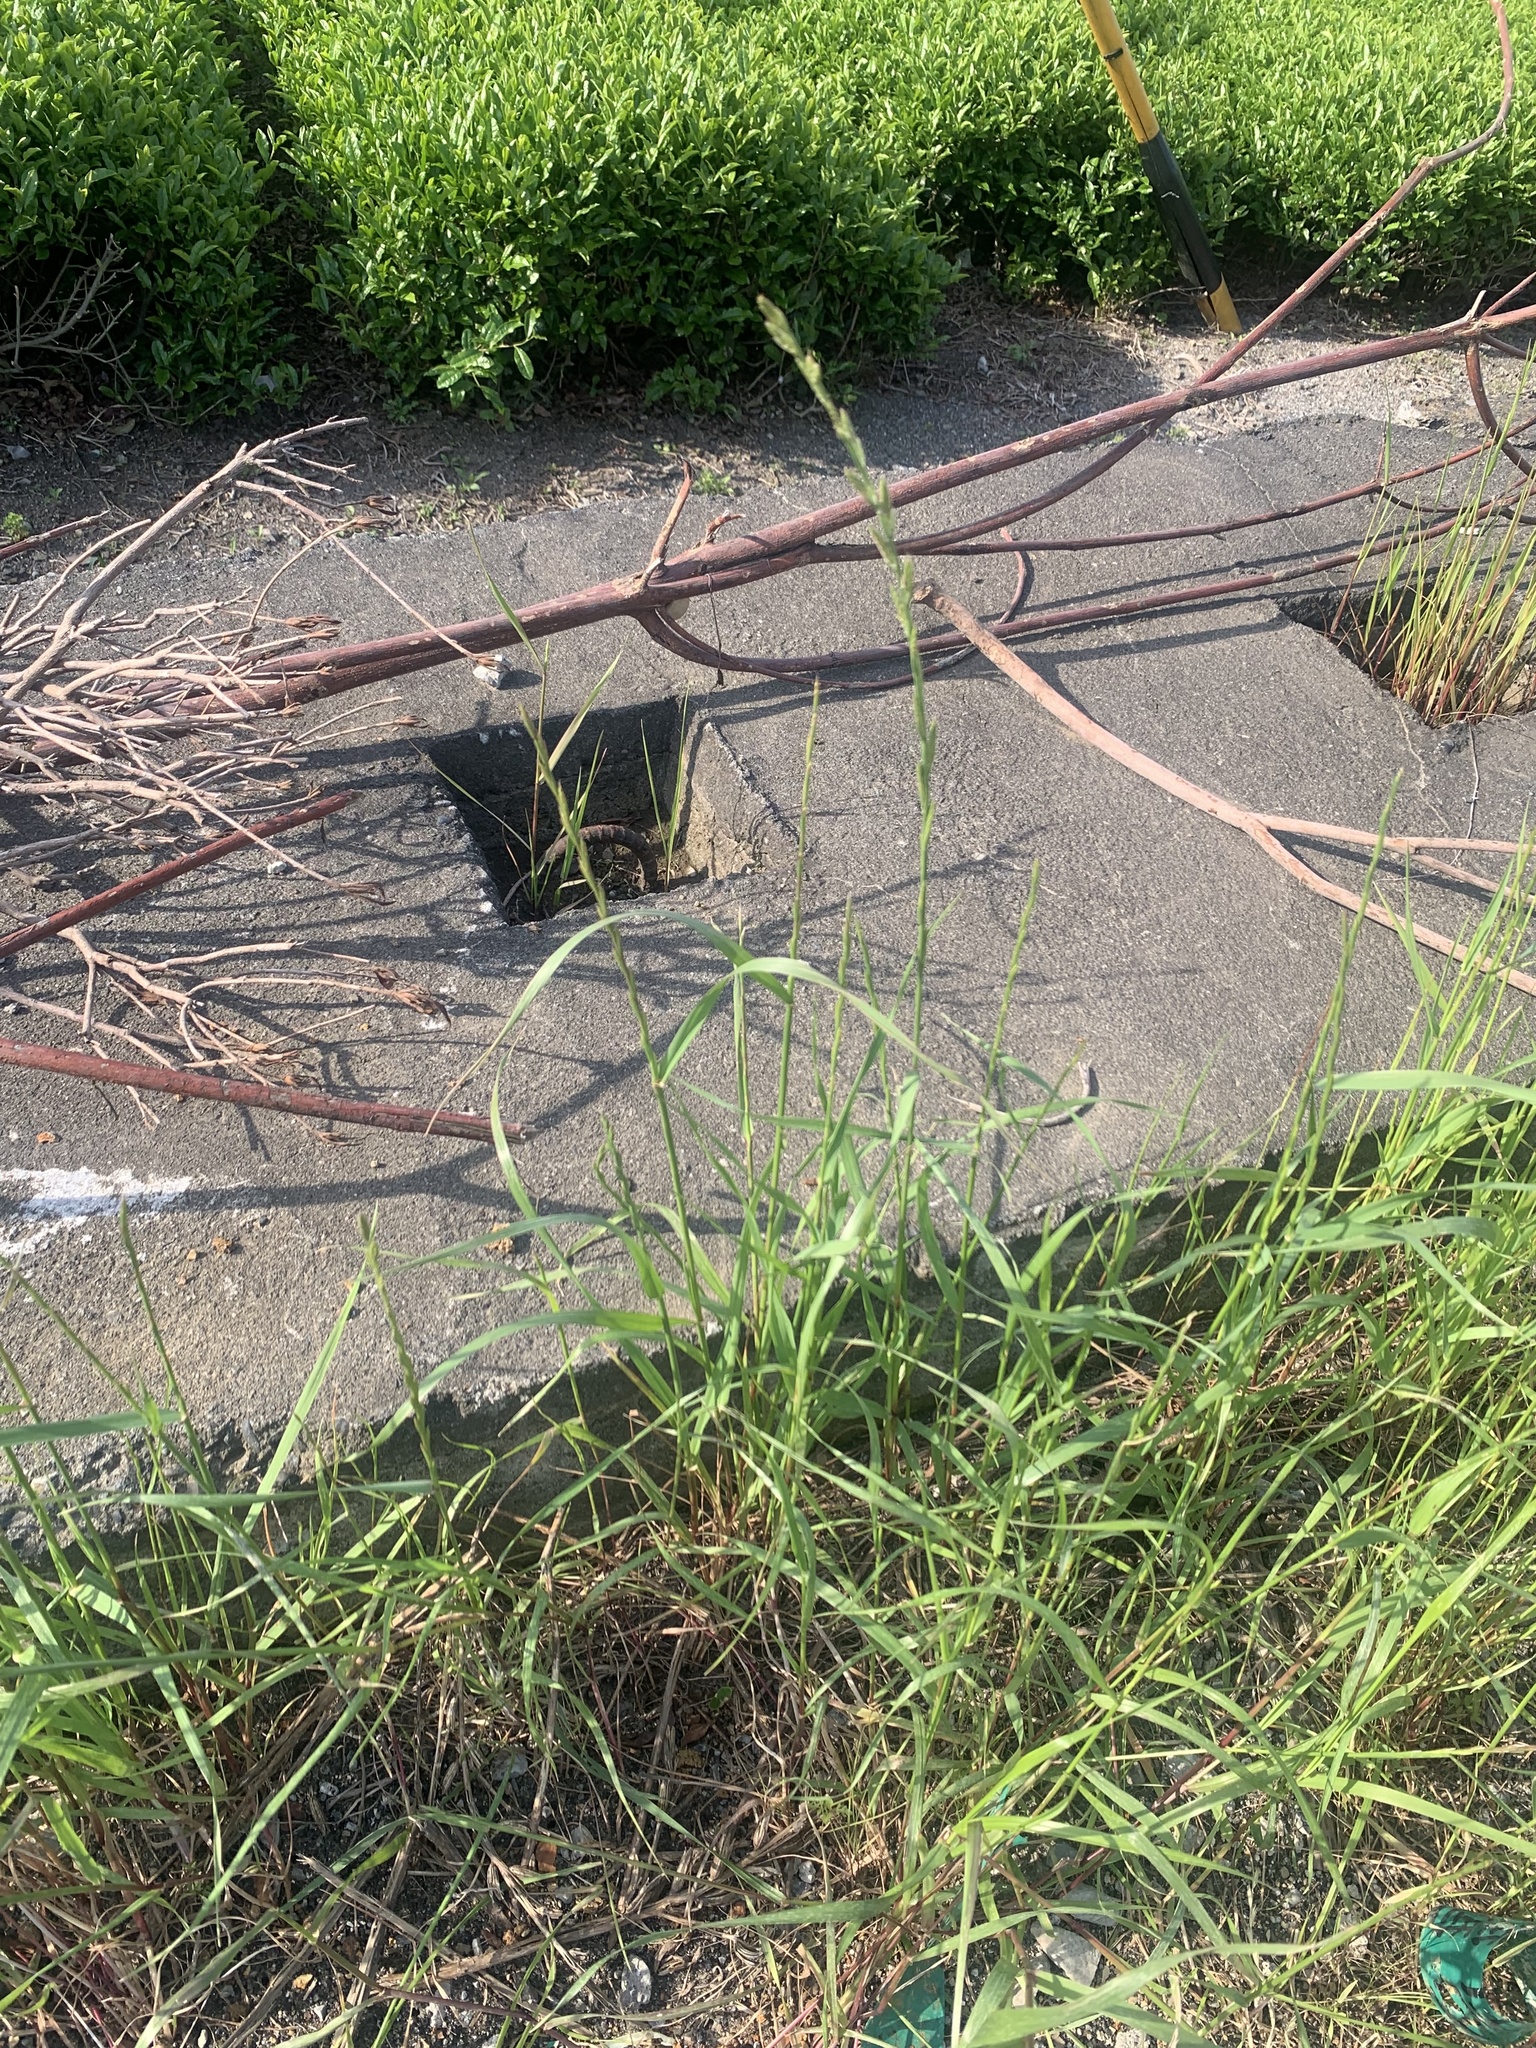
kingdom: Plantae
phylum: Tracheophyta
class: Liliopsida
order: Poales
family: Poaceae
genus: Lolium
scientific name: Lolium perenne
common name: Perennial ryegrass
